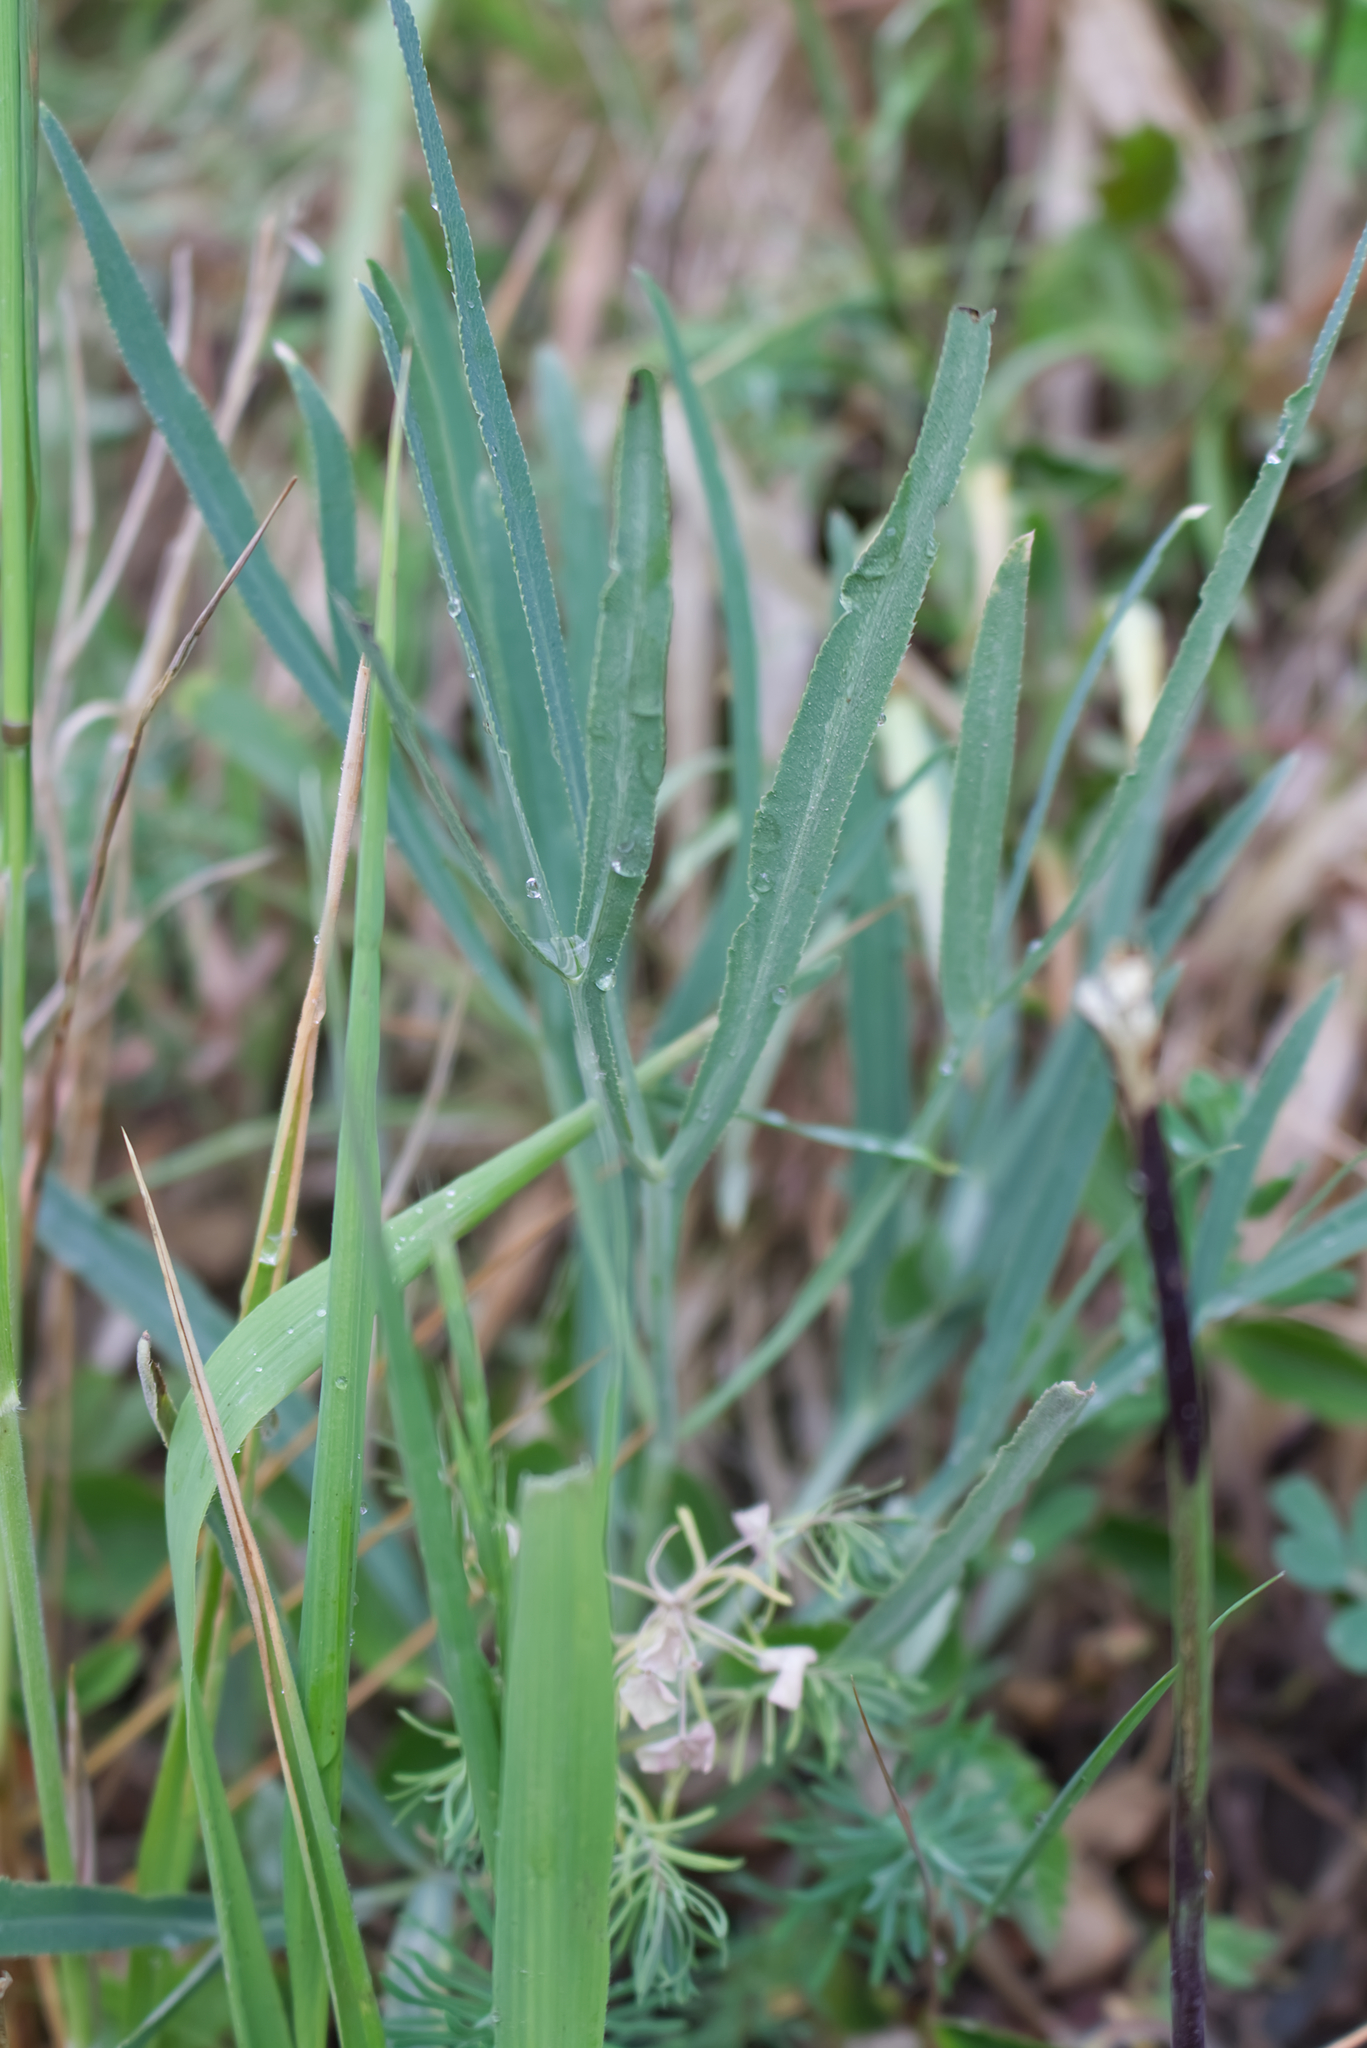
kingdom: Plantae
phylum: Tracheophyta
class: Magnoliopsida
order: Apiales
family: Apiaceae
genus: Falcaria
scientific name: Falcaria vulgaris
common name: Longleaf
